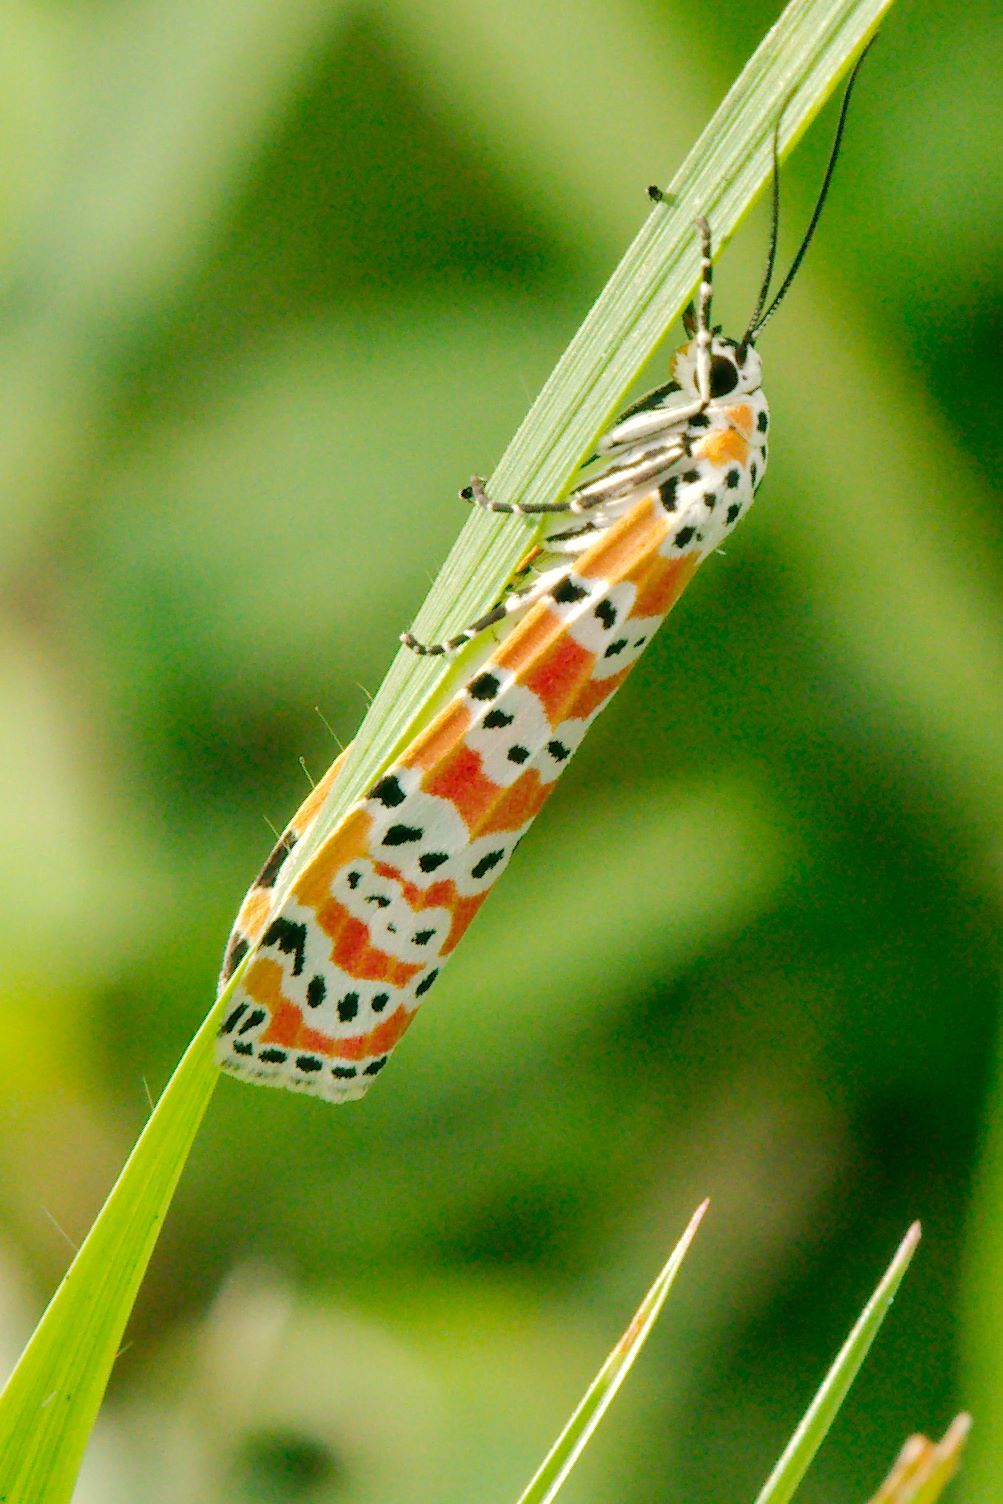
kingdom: Animalia
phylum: Arthropoda
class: Insecta
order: Lepidoptera
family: Erebidae
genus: Utetheisa
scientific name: Utetheisa ornatrix
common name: Beautiful utetheisa
